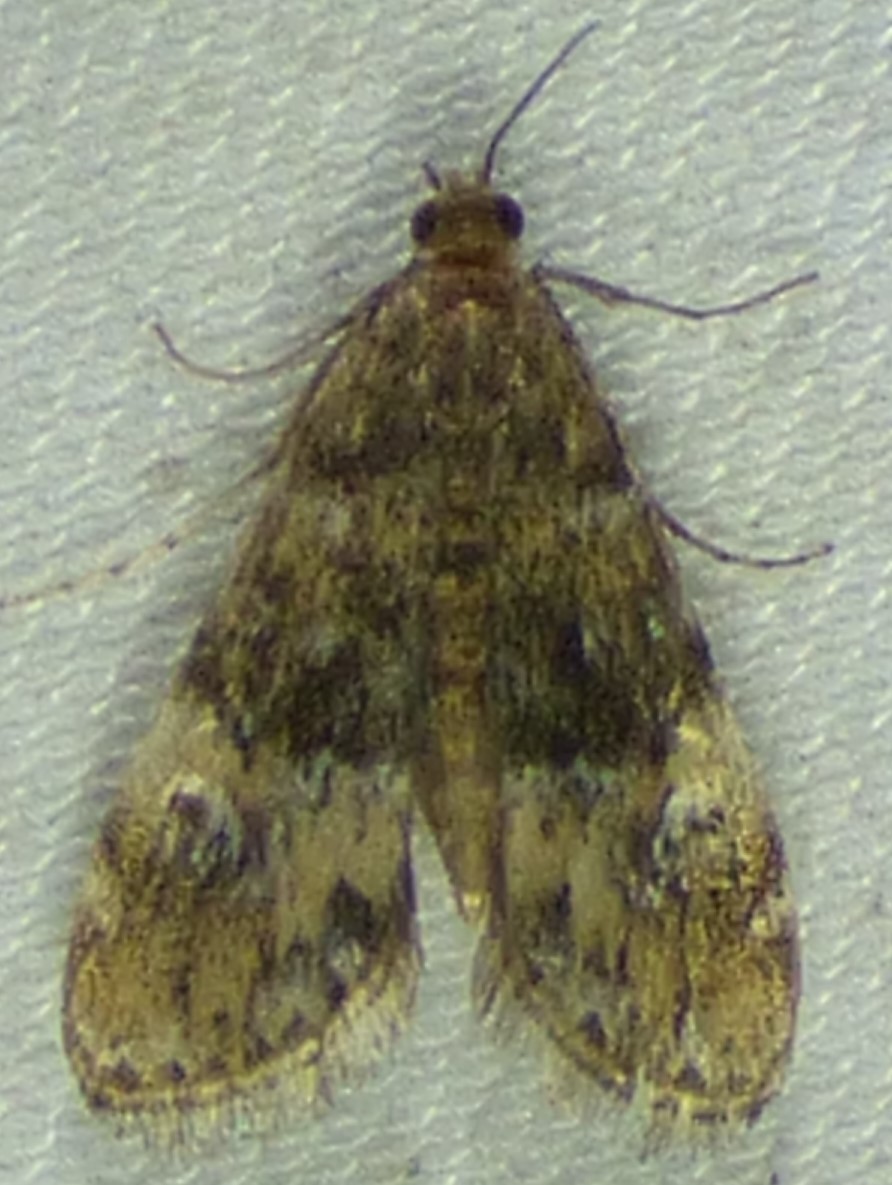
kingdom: Animalia
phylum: Arthropoda
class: Insecta
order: Lepidoptera
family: Crambidae
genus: Elophila
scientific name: Elophila obliteralis
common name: Waterlily leafcutter moth
